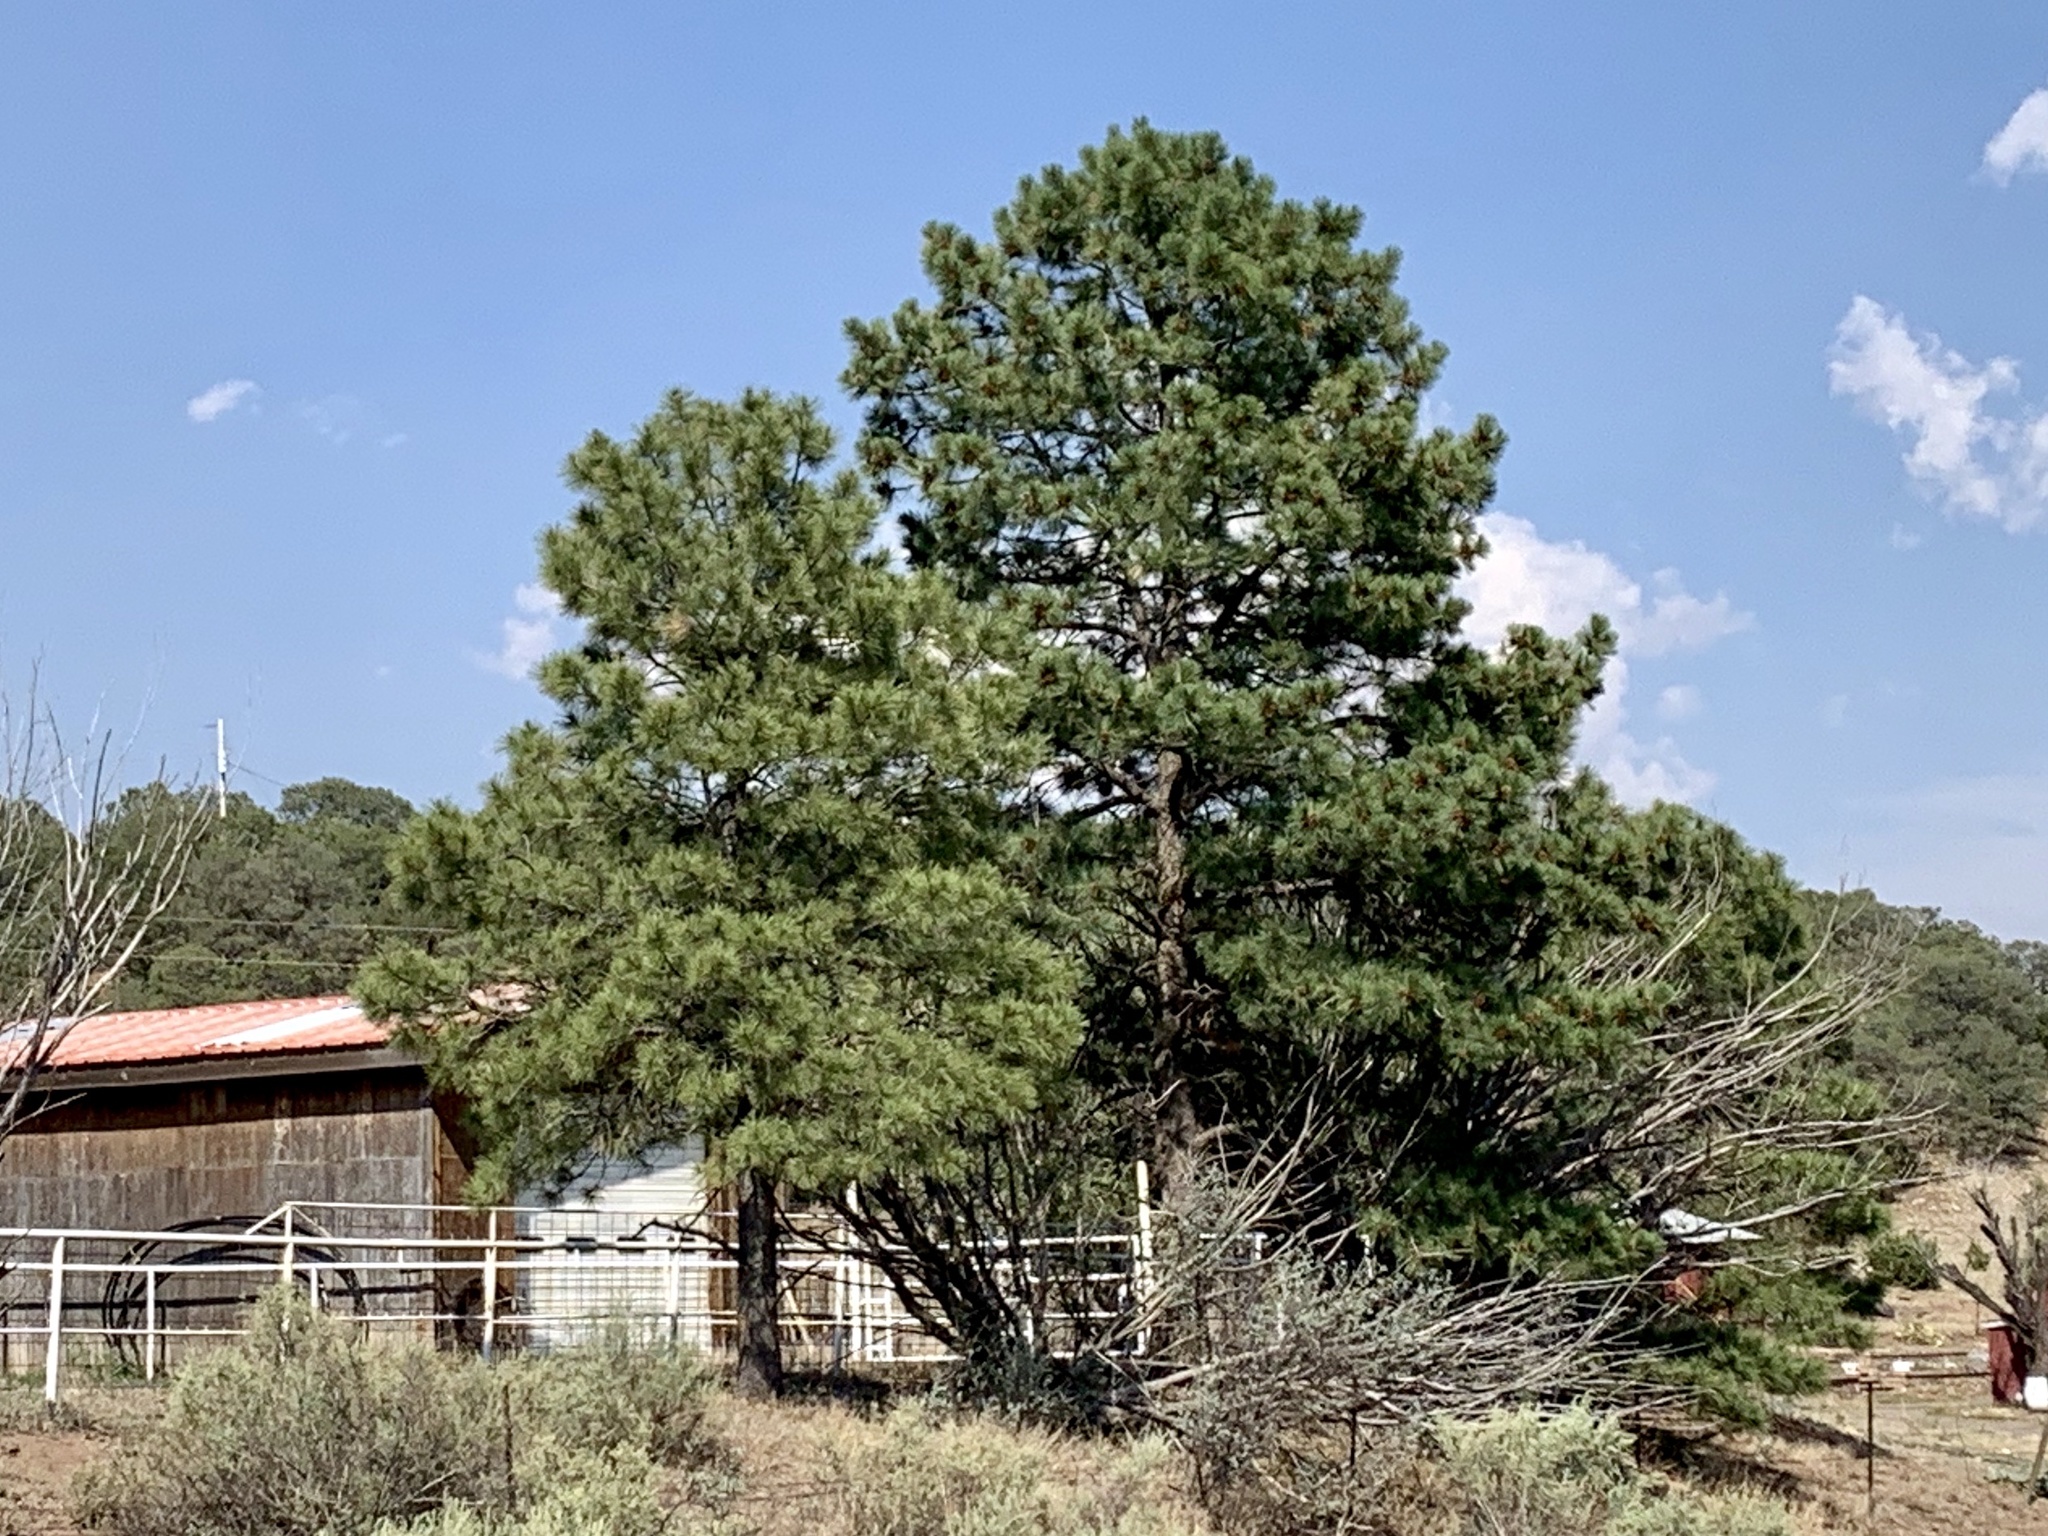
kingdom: Plantae
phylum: Tracheophyta
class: Pinopsida
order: Pinales
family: Pinaceae
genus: Pinus
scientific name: Pinus ponderosa
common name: Western yellow-pine
